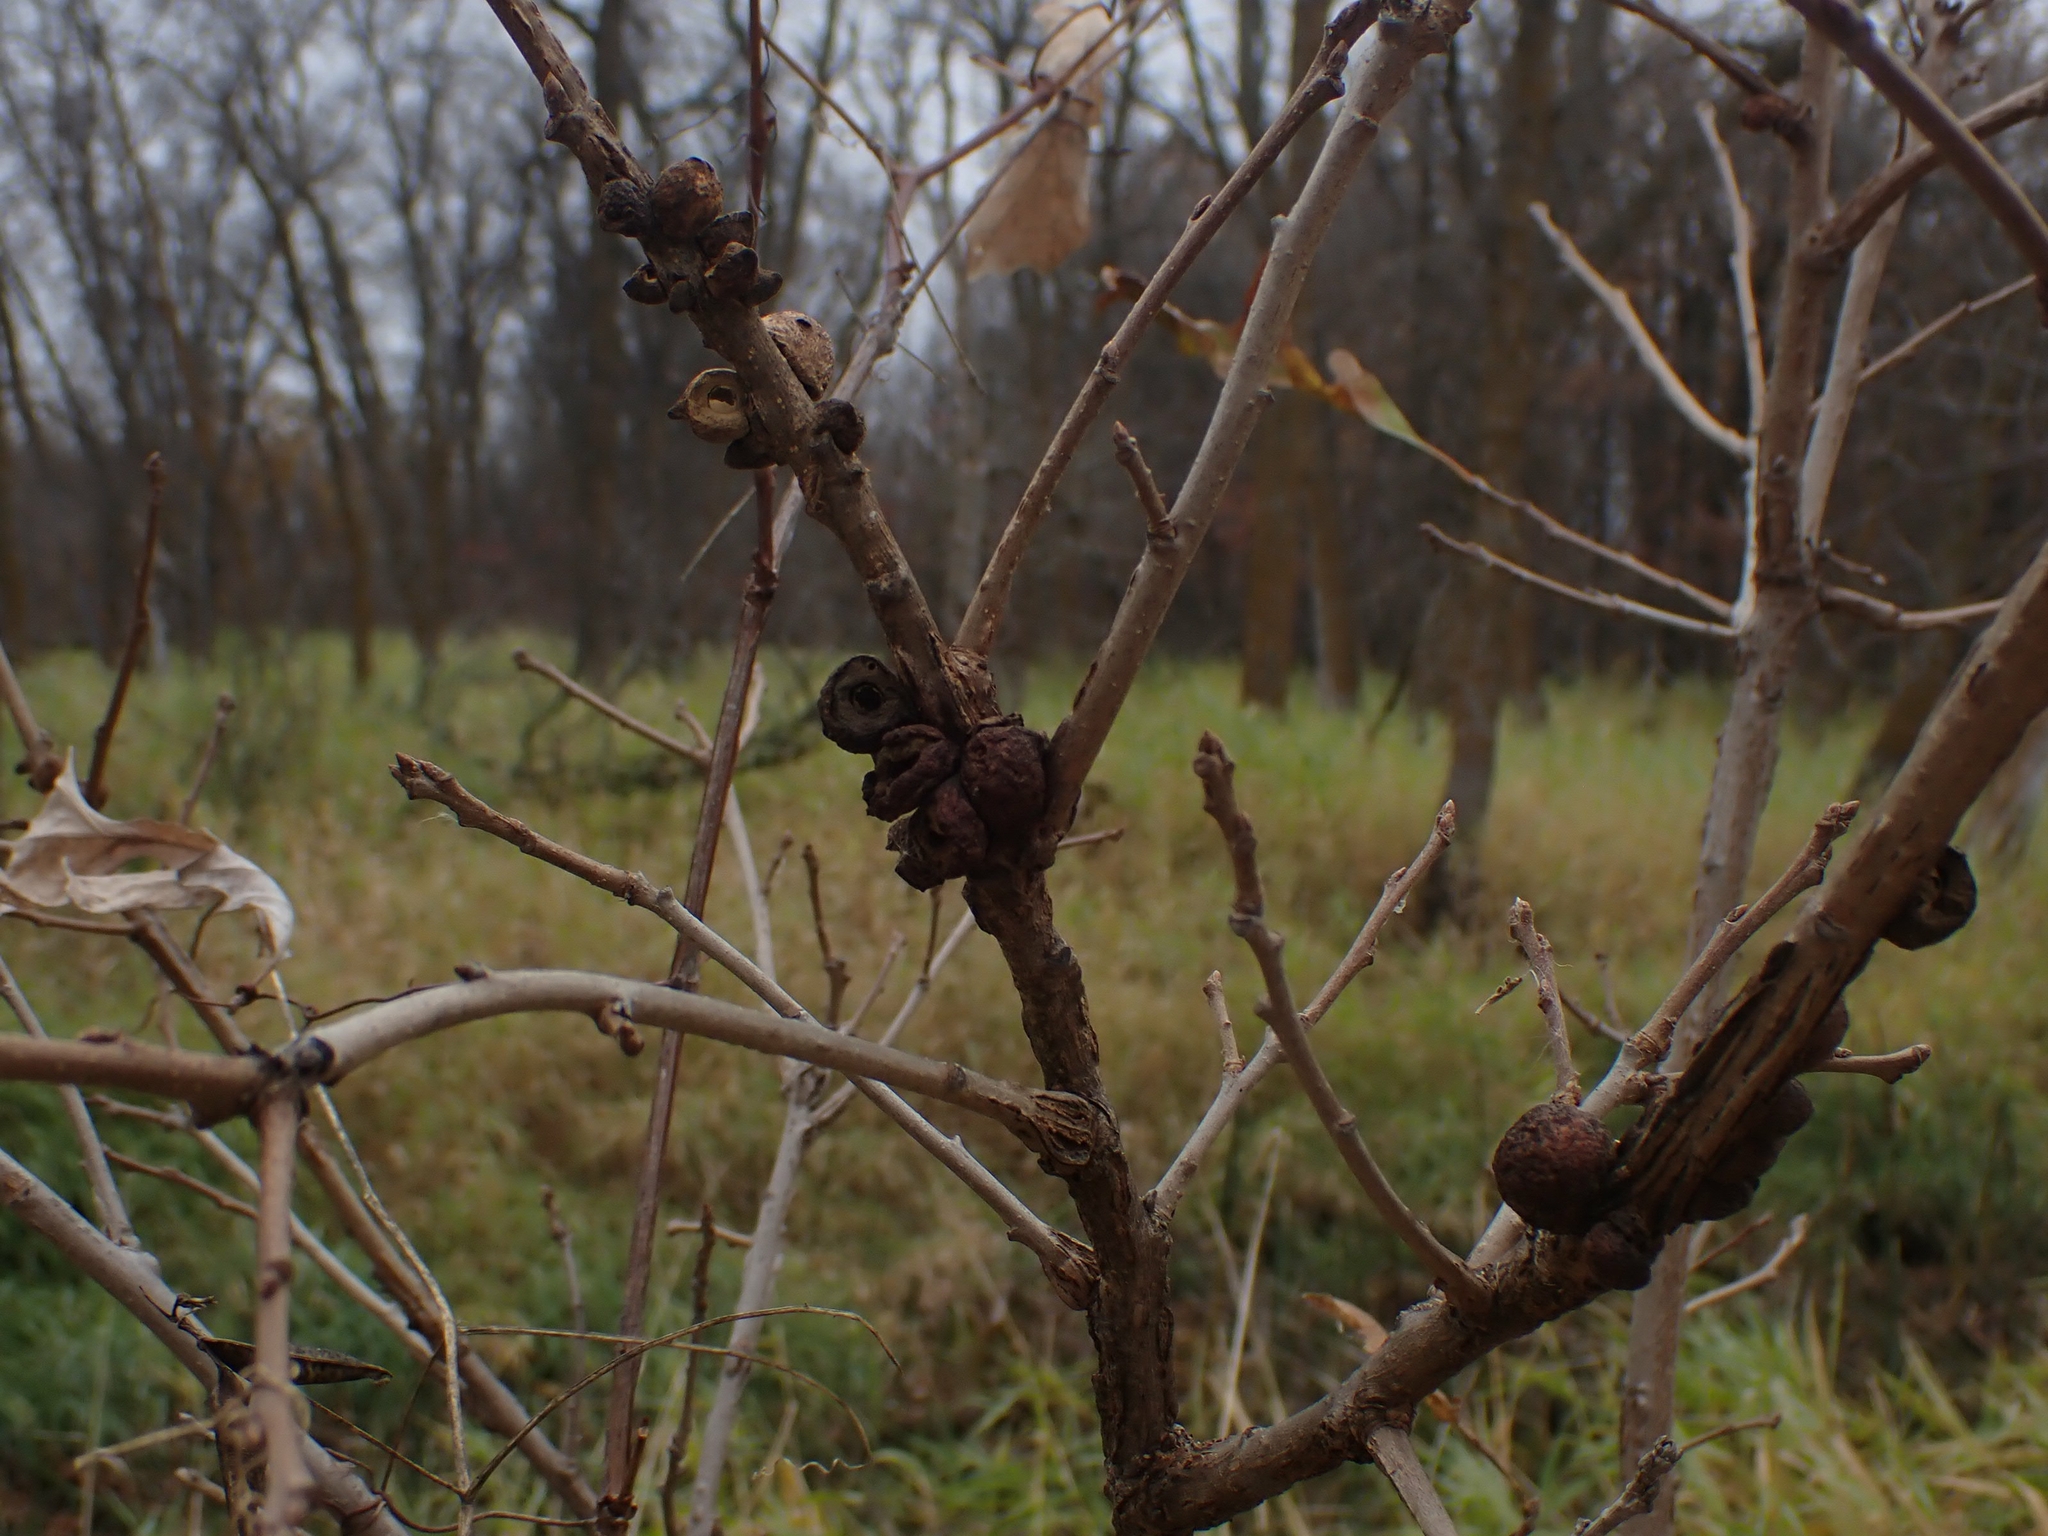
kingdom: Animalia
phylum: Arthropoda
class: Insecta
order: Hymenoptera
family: Cynipidae
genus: Disholcaspis
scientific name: Disholcaspis
